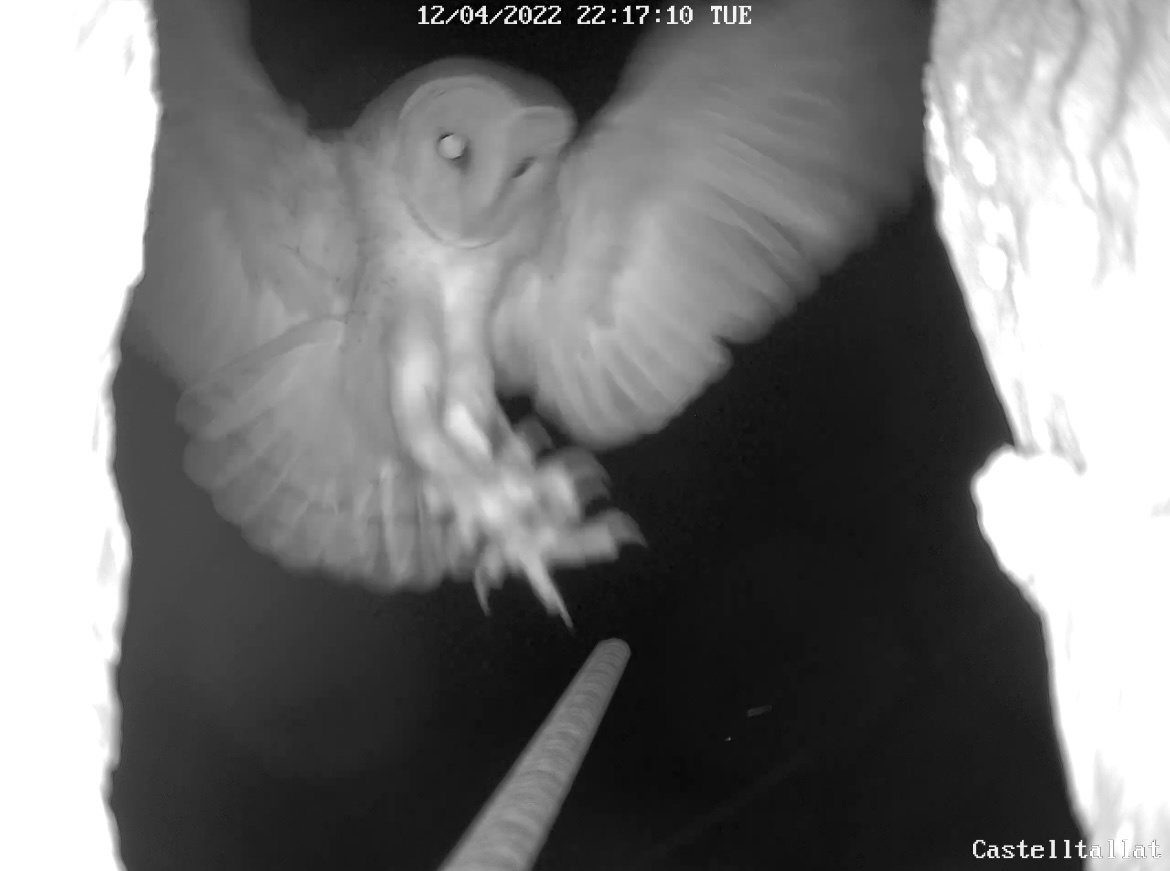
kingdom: Animalia
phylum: Chordata
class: Aves
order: Strigiformes
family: Tytonidae
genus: Tyto
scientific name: Tyto alba
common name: Barn owl
